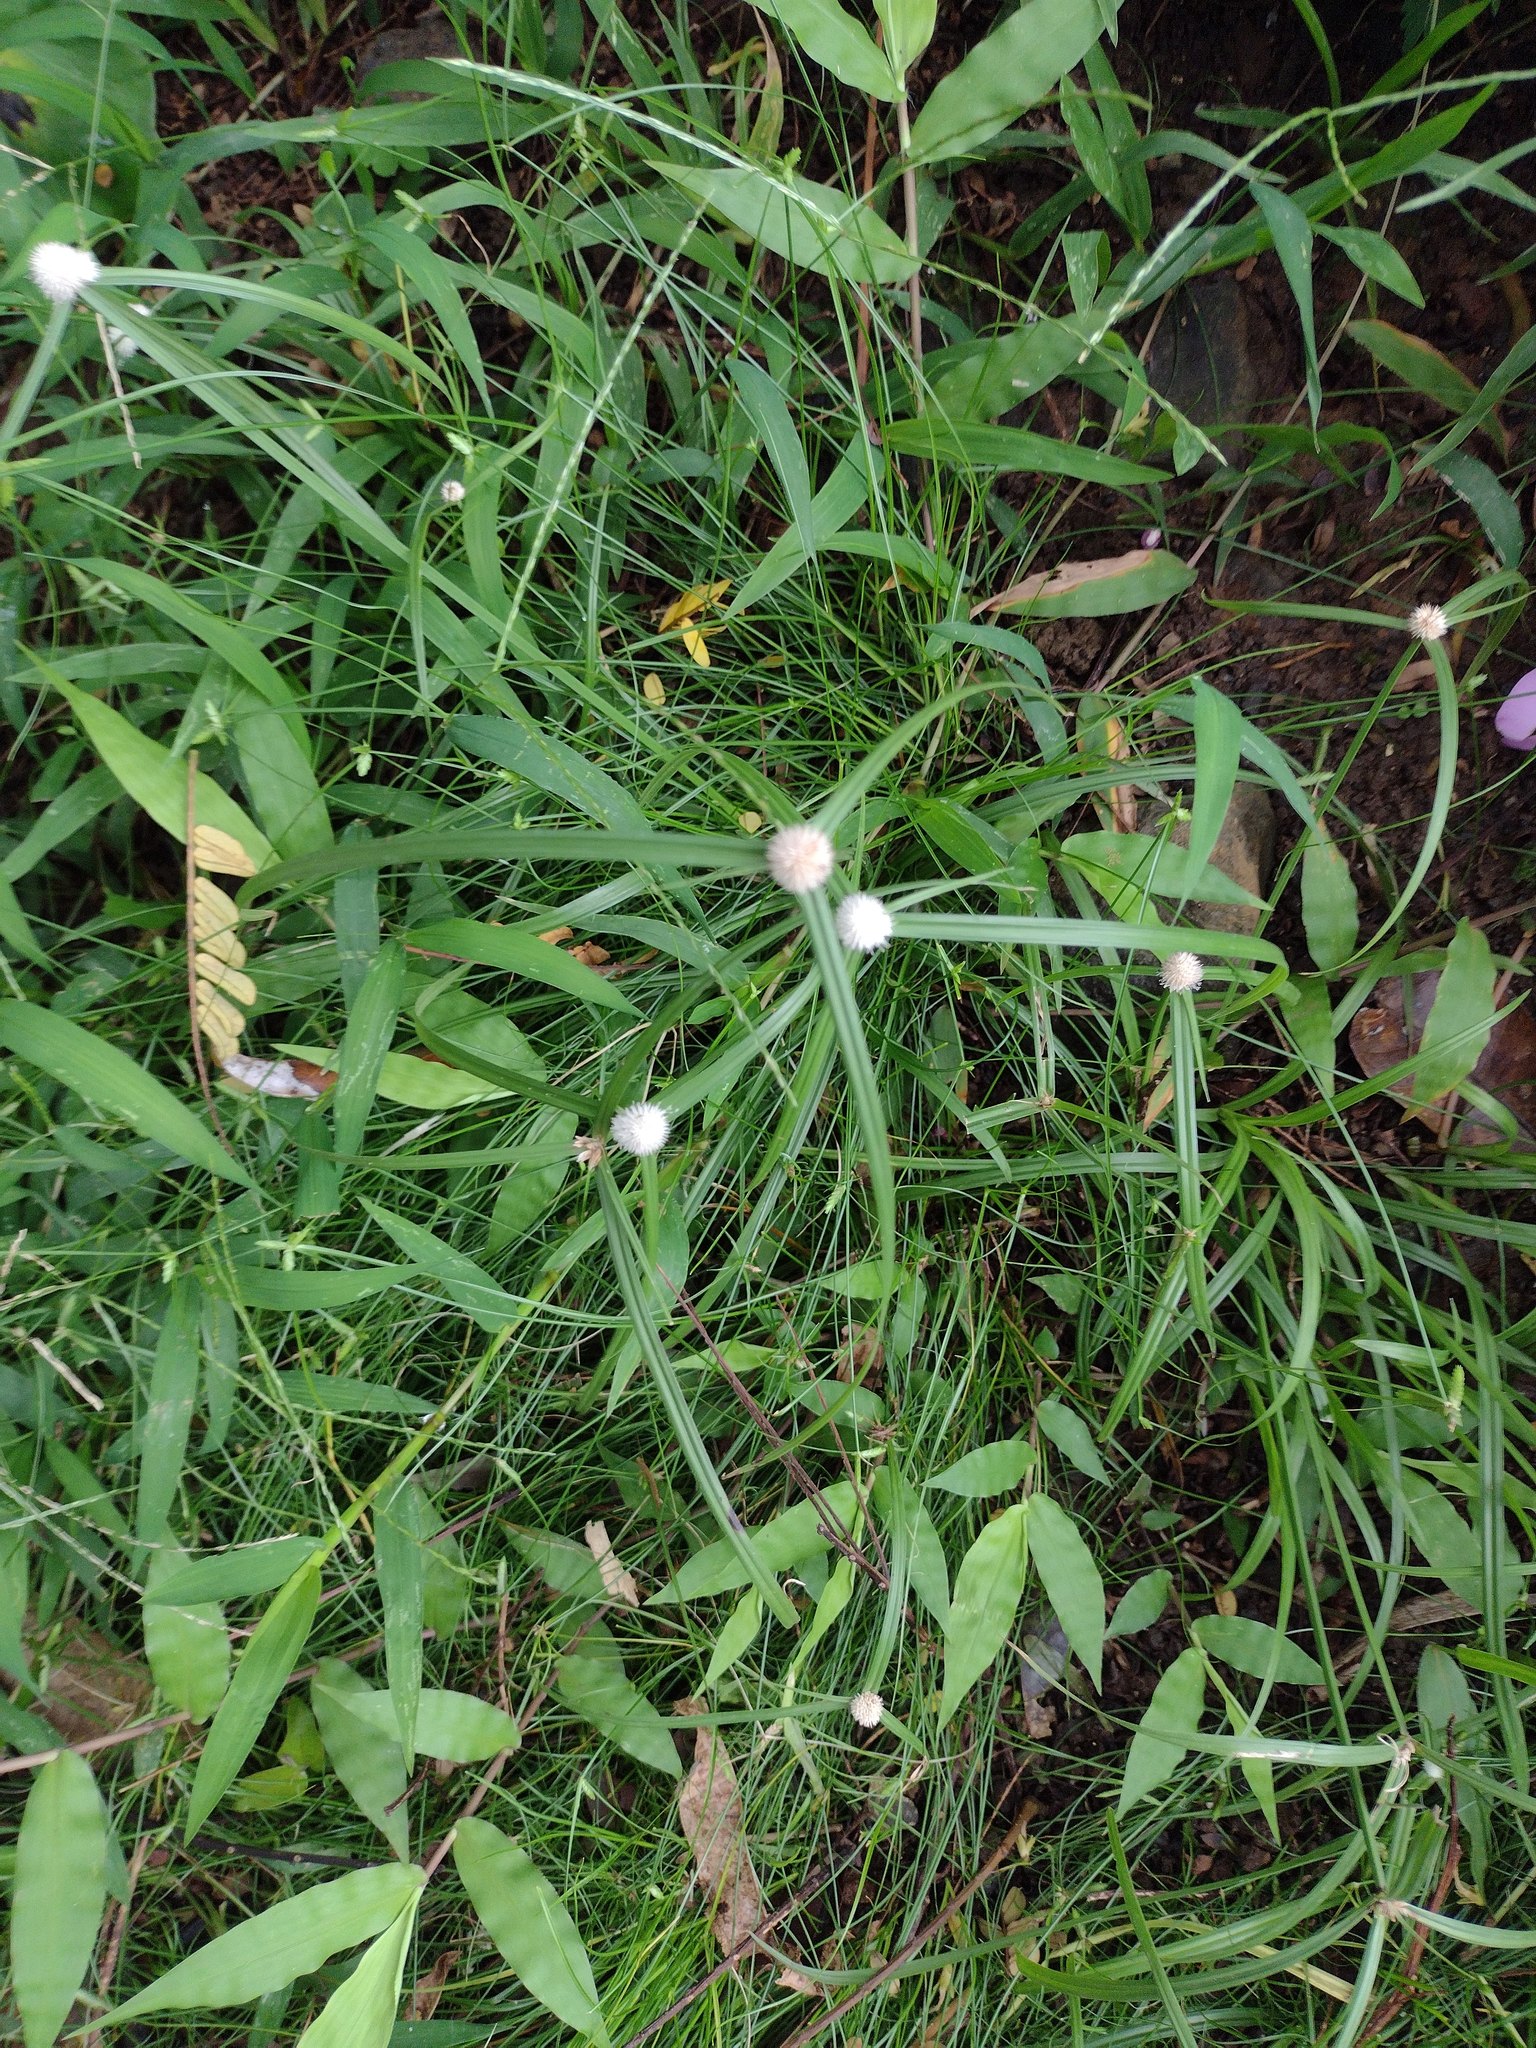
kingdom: Plantae
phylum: Tracheophyta
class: Liliopsida
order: Poales
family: Cyperaceae
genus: Cyperus
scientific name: Cyperus mindorensis
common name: Flatsedge
